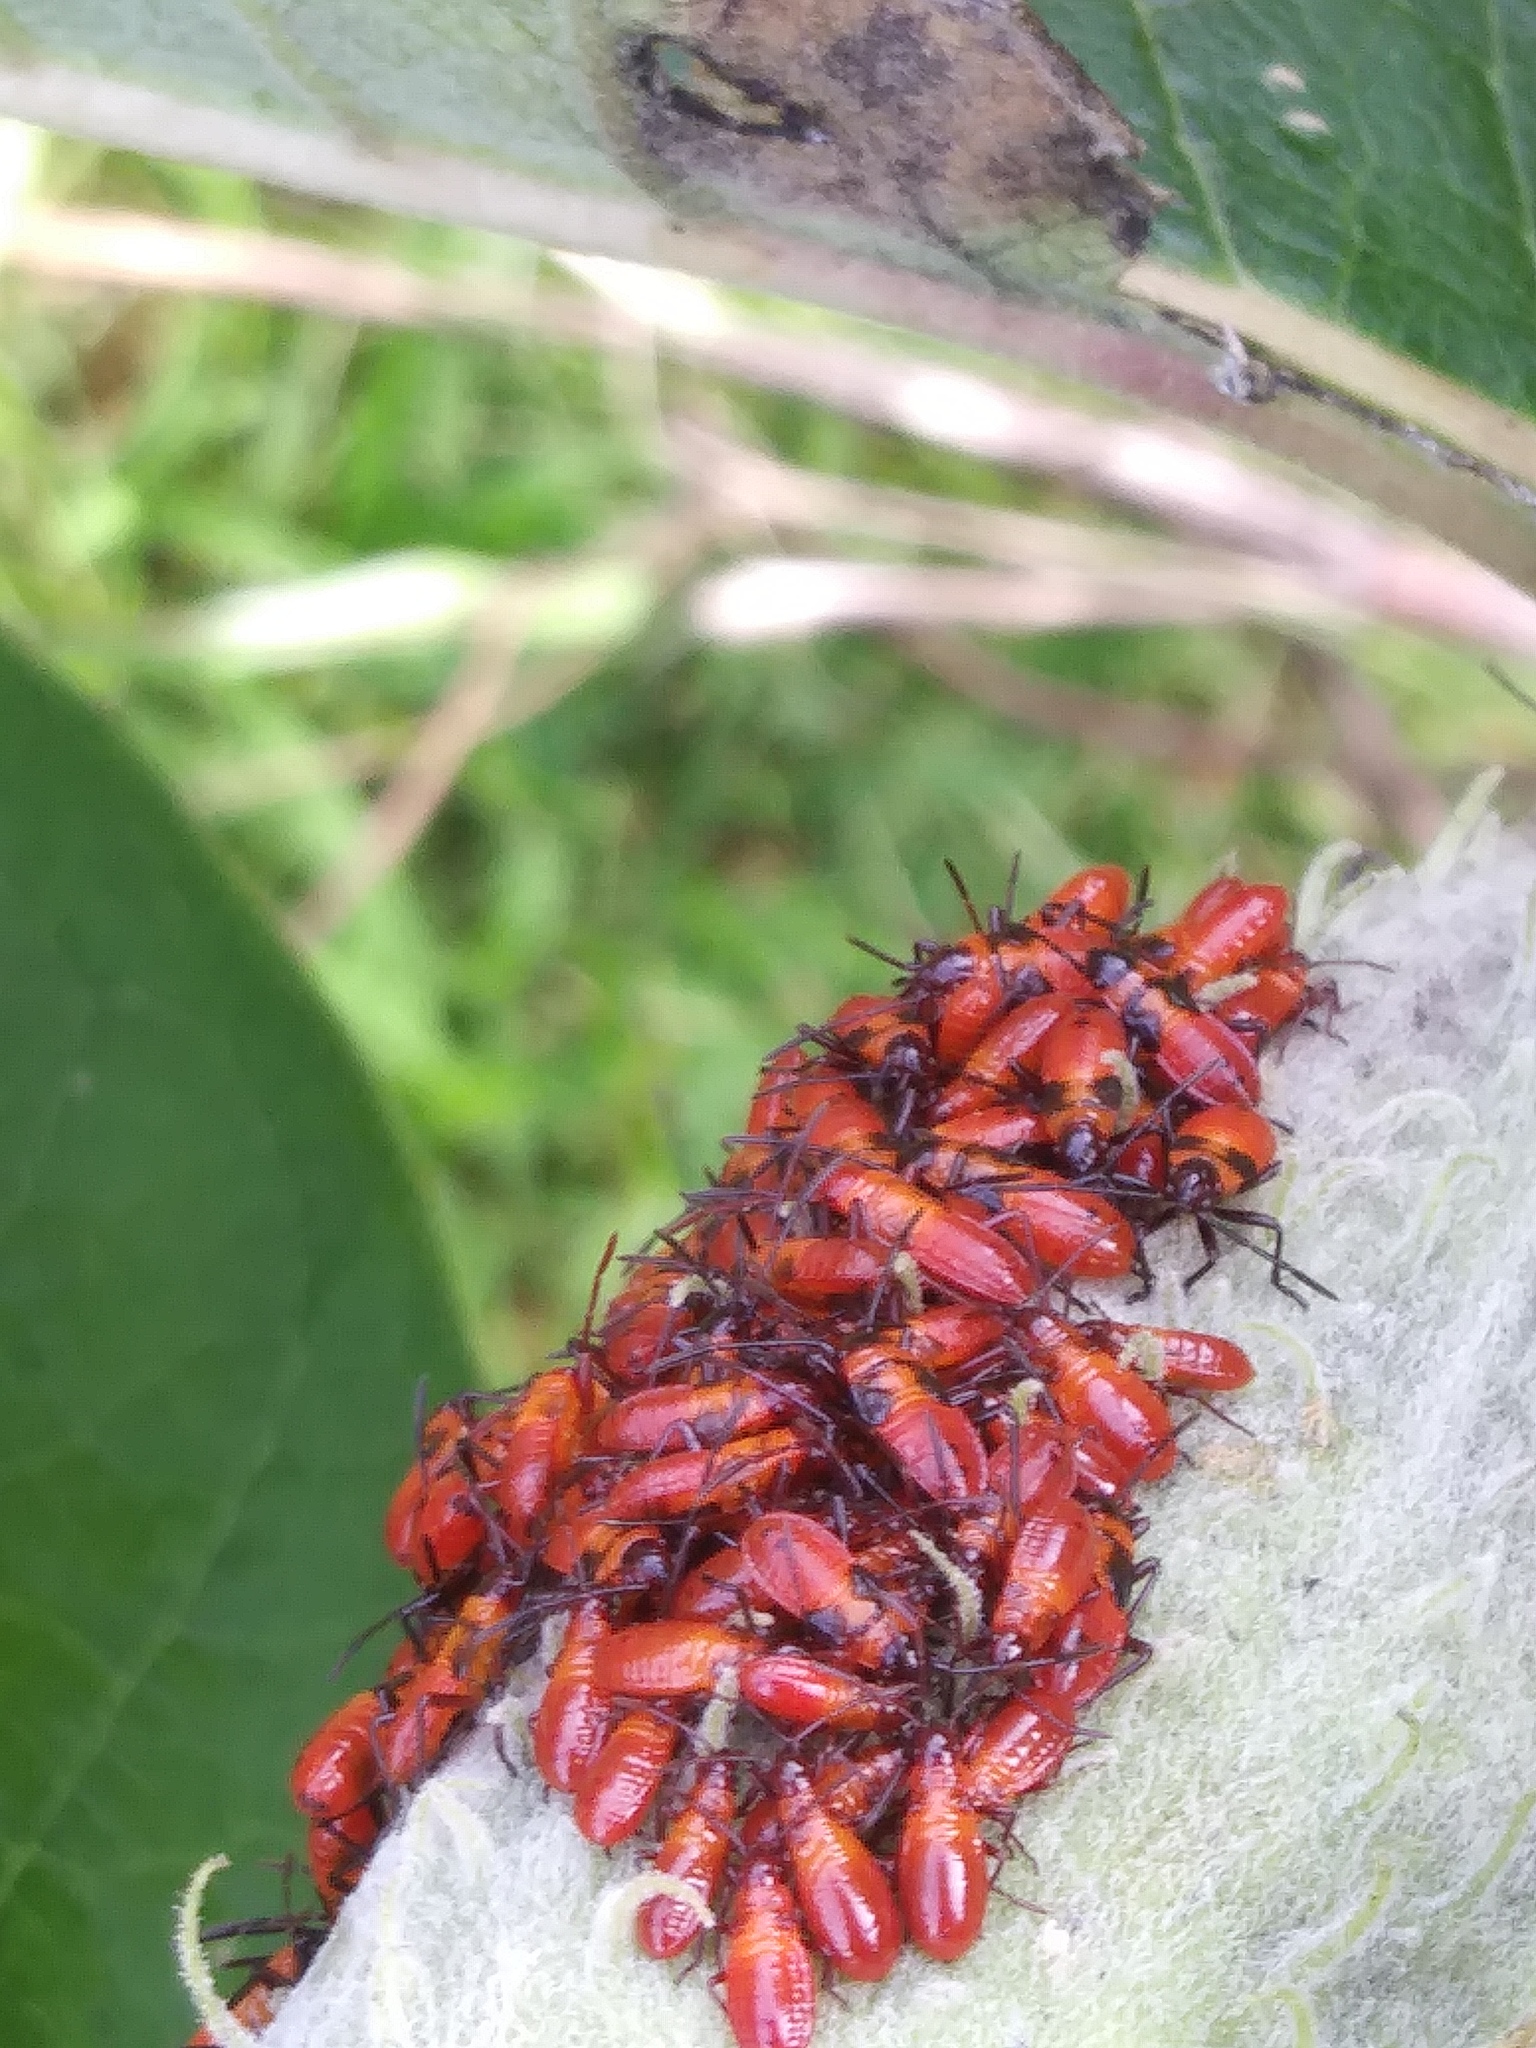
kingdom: Animalia
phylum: Arthropoda
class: Insecta
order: Hemiptera
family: Lygaeidae
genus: Oncopeltus
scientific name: Oncopeltus fasciatus
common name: Large milkweed bug
